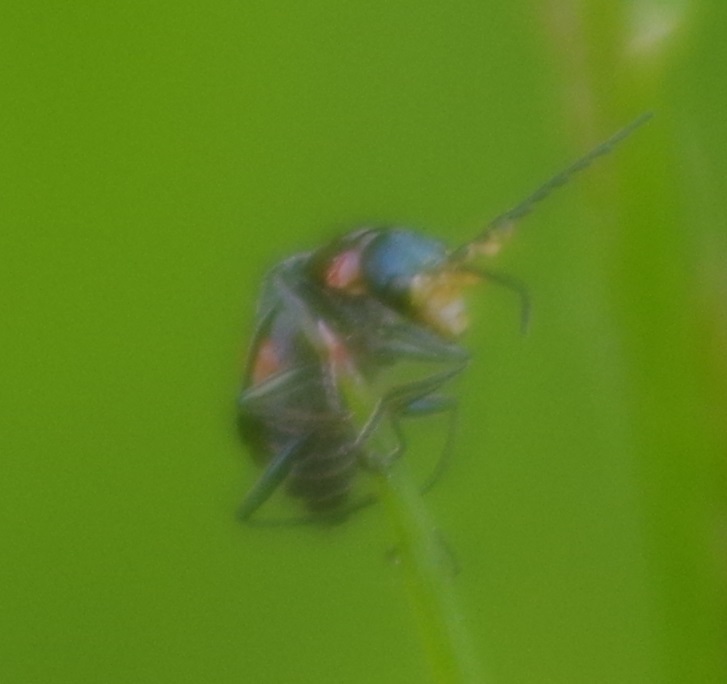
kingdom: Animalia
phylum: Arthropoda
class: Insecta
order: Coleoptera
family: Melyridae
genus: Malachius
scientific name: Malachius bipustulatus
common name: Malachite beetle
